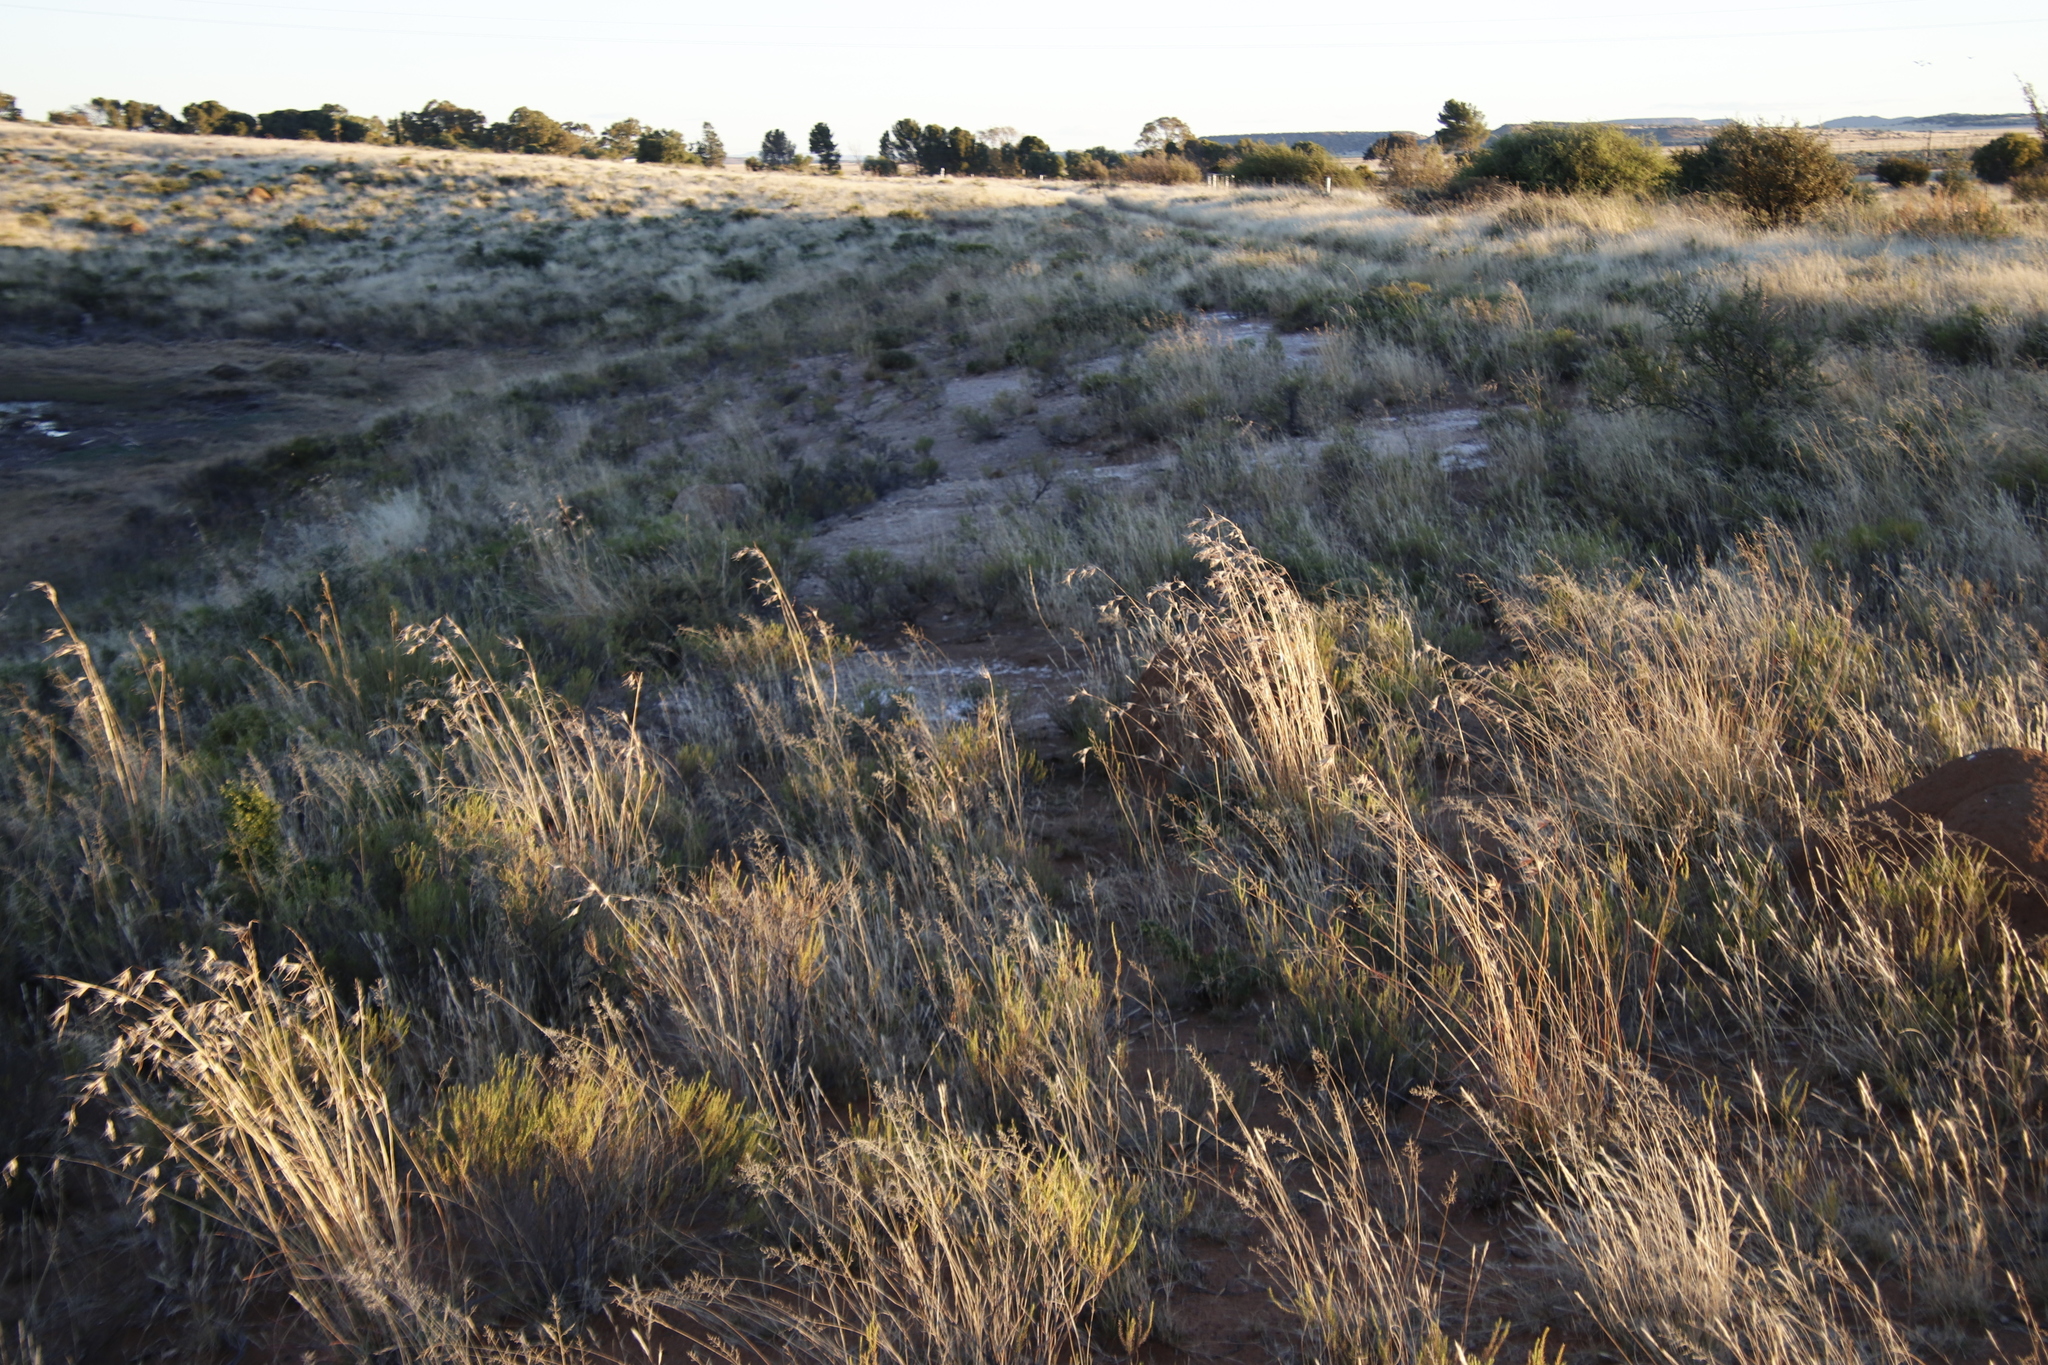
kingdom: Plantae
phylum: Tracheophyta
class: Liliopsida
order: Poales
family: Poaceae
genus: Themeda
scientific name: Themeda triandra
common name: Kangaroo grass
